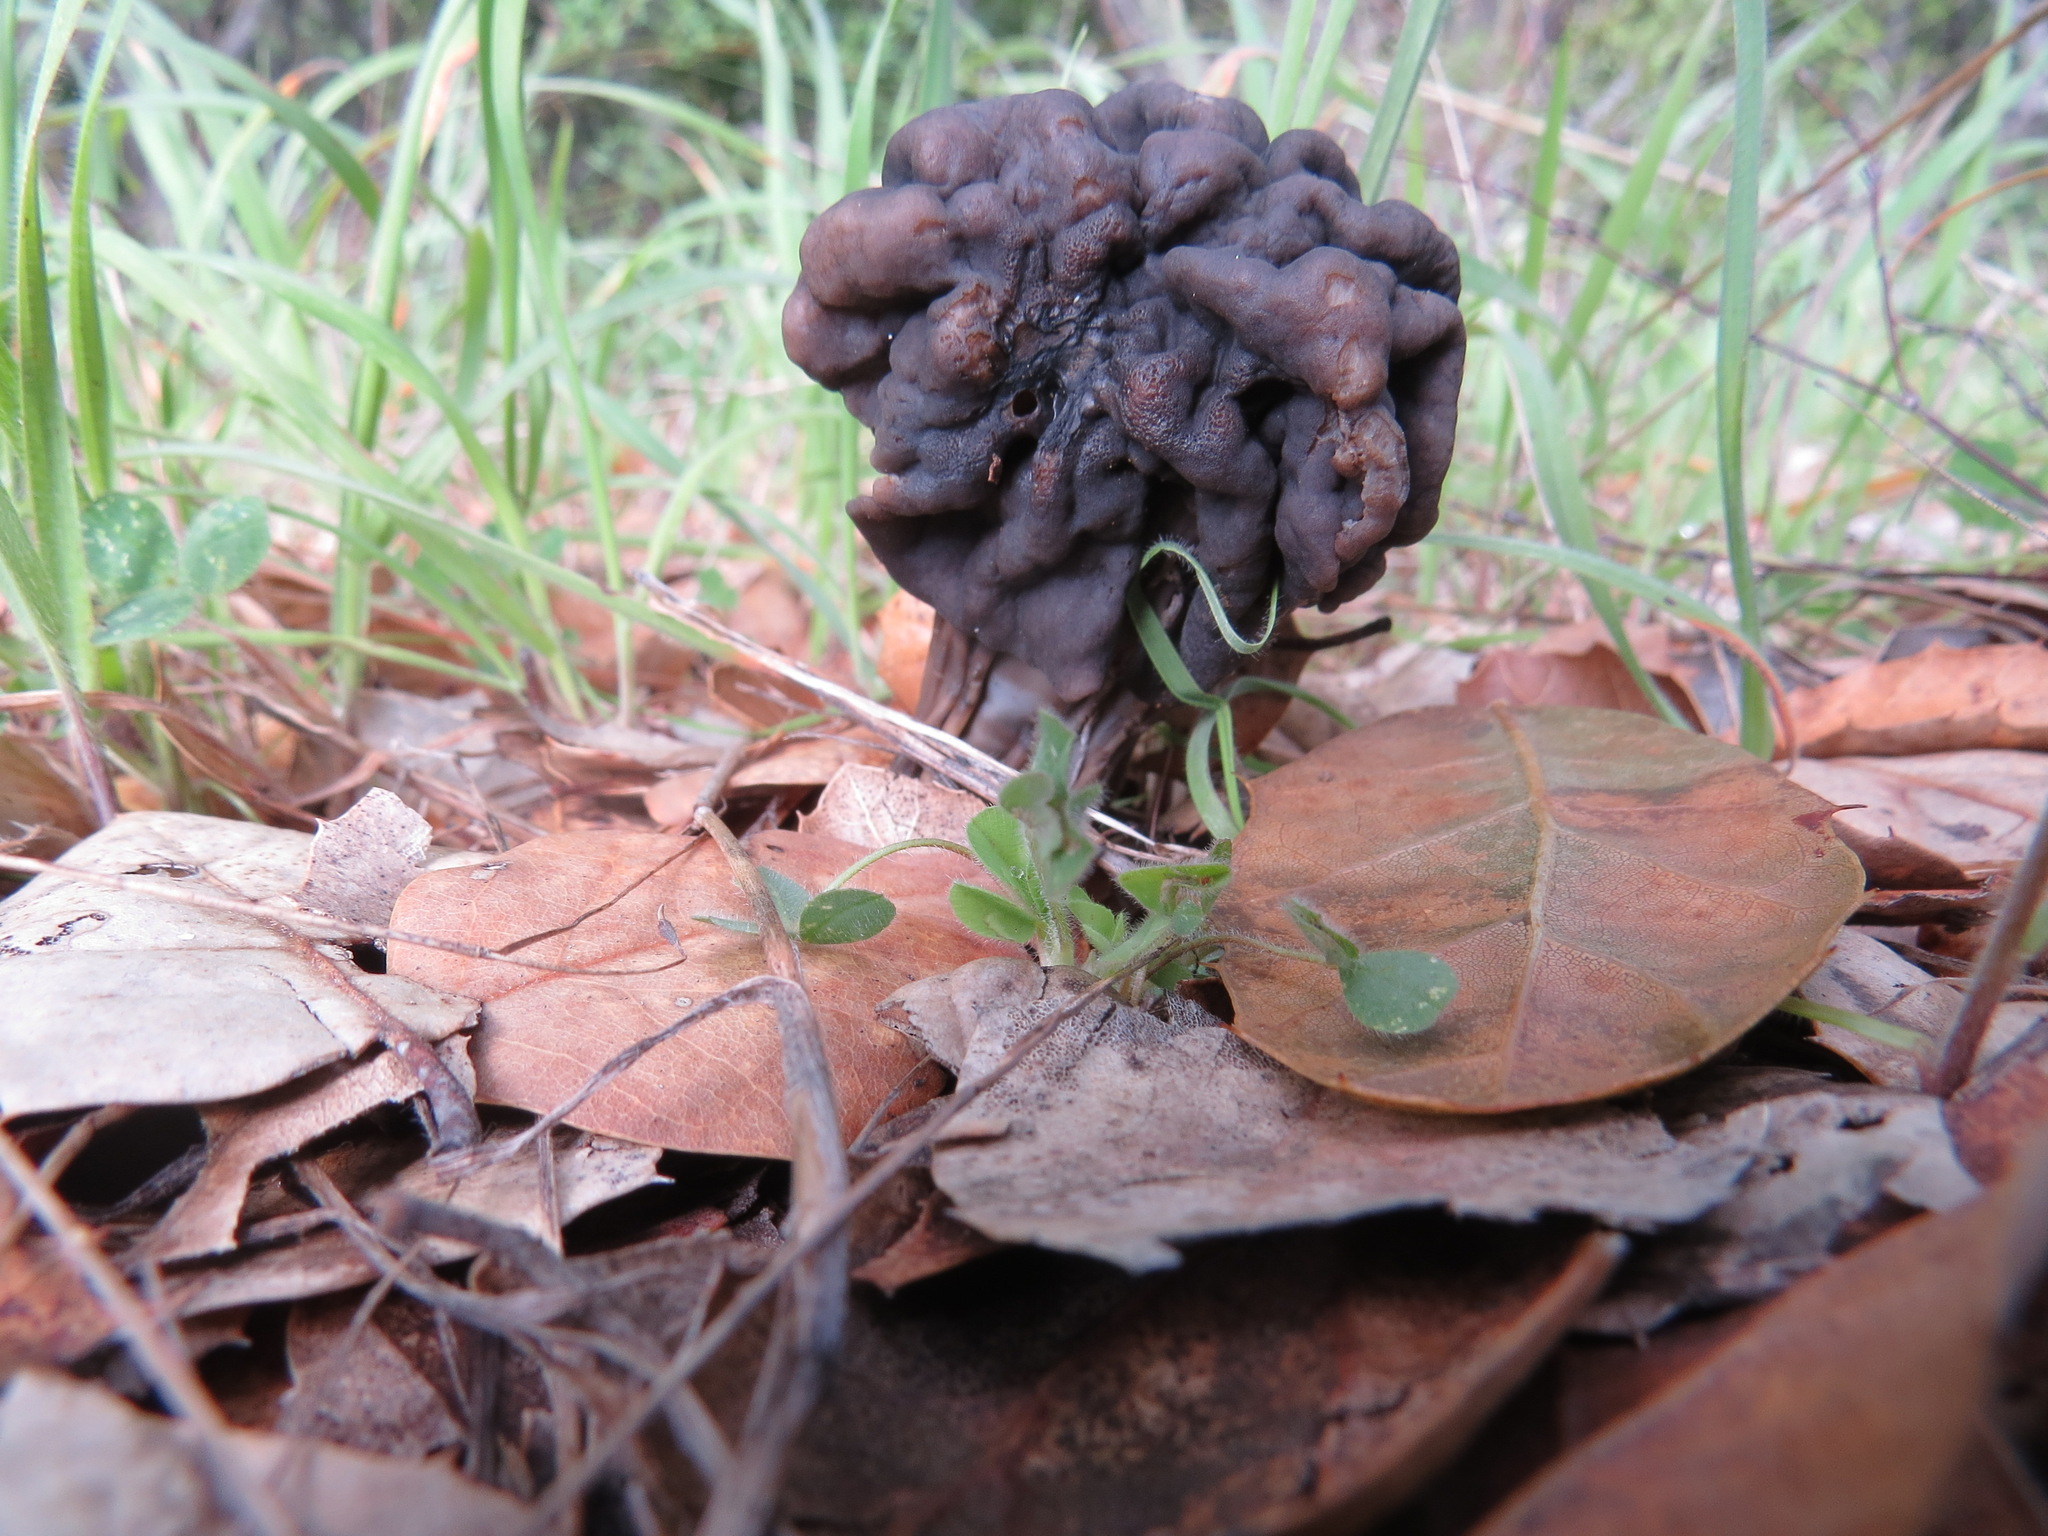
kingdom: Fungi
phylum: Ascomycota
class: Pezizomycetes
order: Pezizales
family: Helvellaceae
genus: Helvella
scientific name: Helvella dryophila
